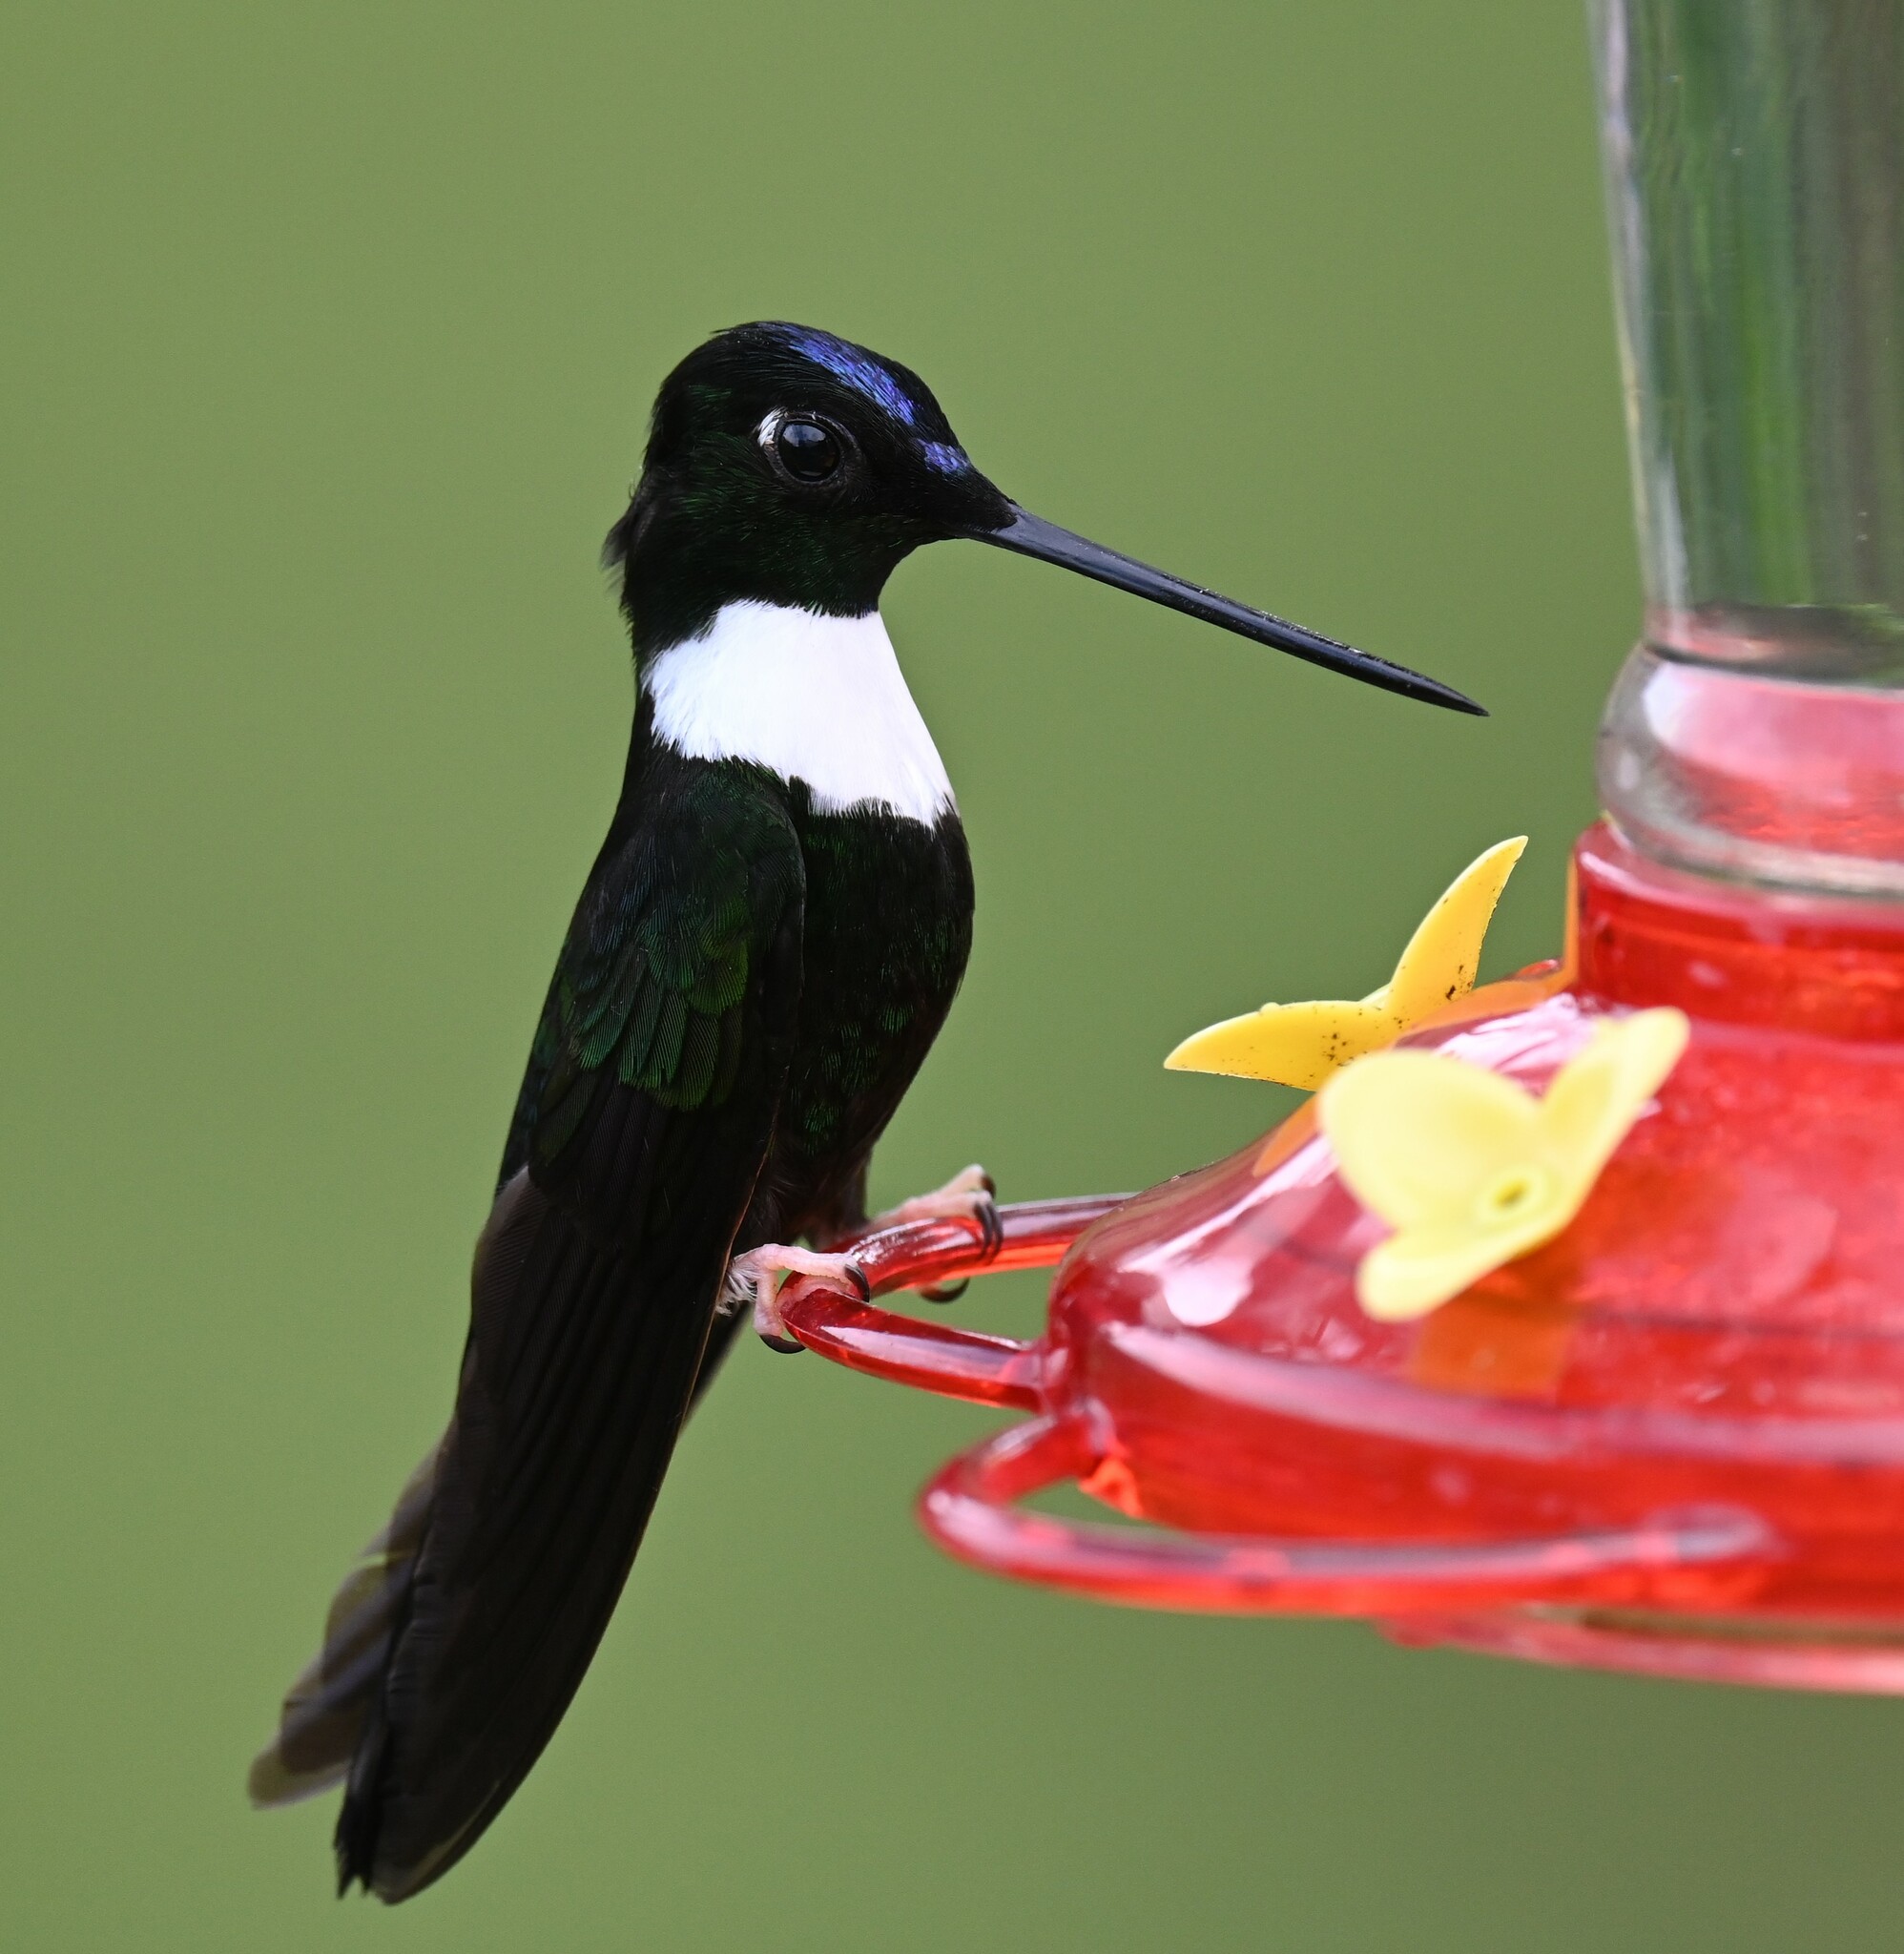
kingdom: Animalia
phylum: Chordata
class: Aves
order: Apodiformes
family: Trochilidae
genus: Coeligena
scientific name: Coeligena torquata
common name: Collared inca
